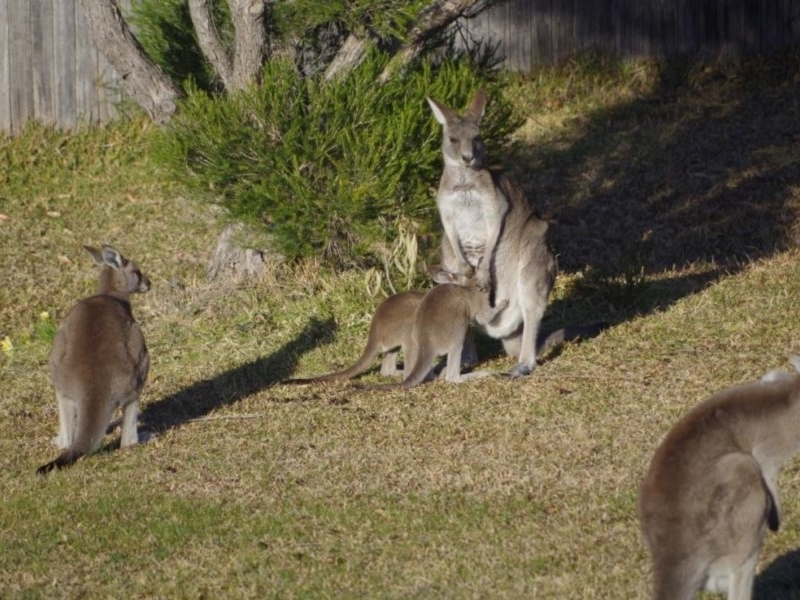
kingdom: Animalia
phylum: Chordata
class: Mammalia
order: Diprotodontia
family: Macropodidae
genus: Macropus
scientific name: Macropus giganteus
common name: Eastern grey kangaroo
